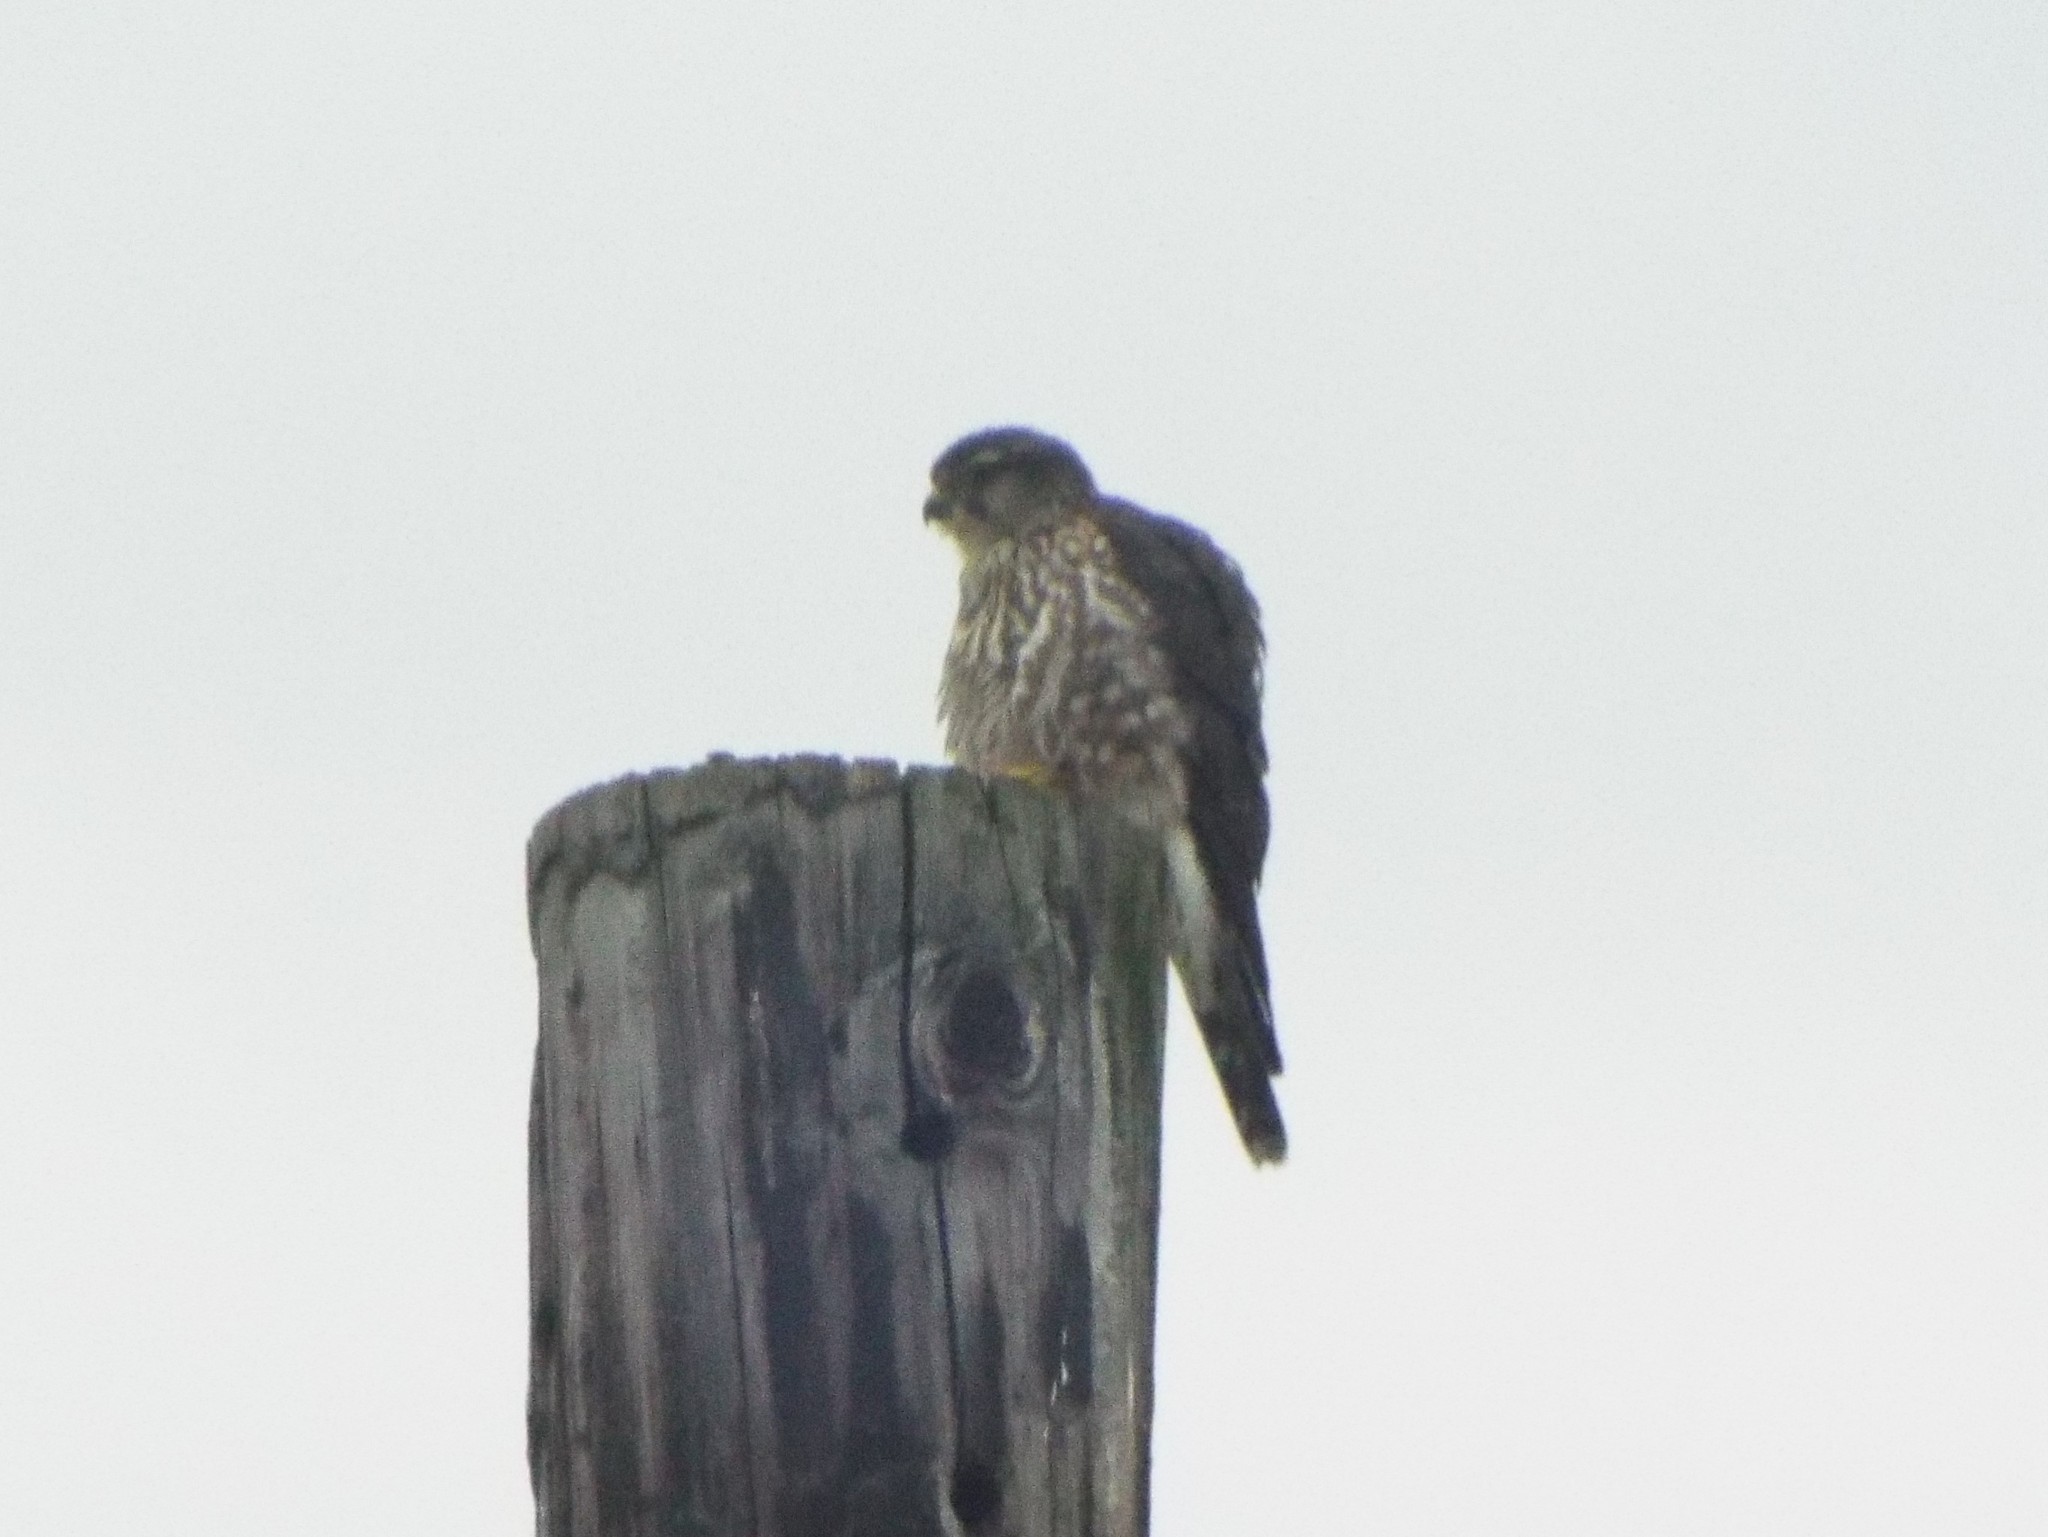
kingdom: Animalia
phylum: Chordata
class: Aves
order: Falconiformes
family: Falconidae
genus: Falco
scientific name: Falco columbarius
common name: Merlin
